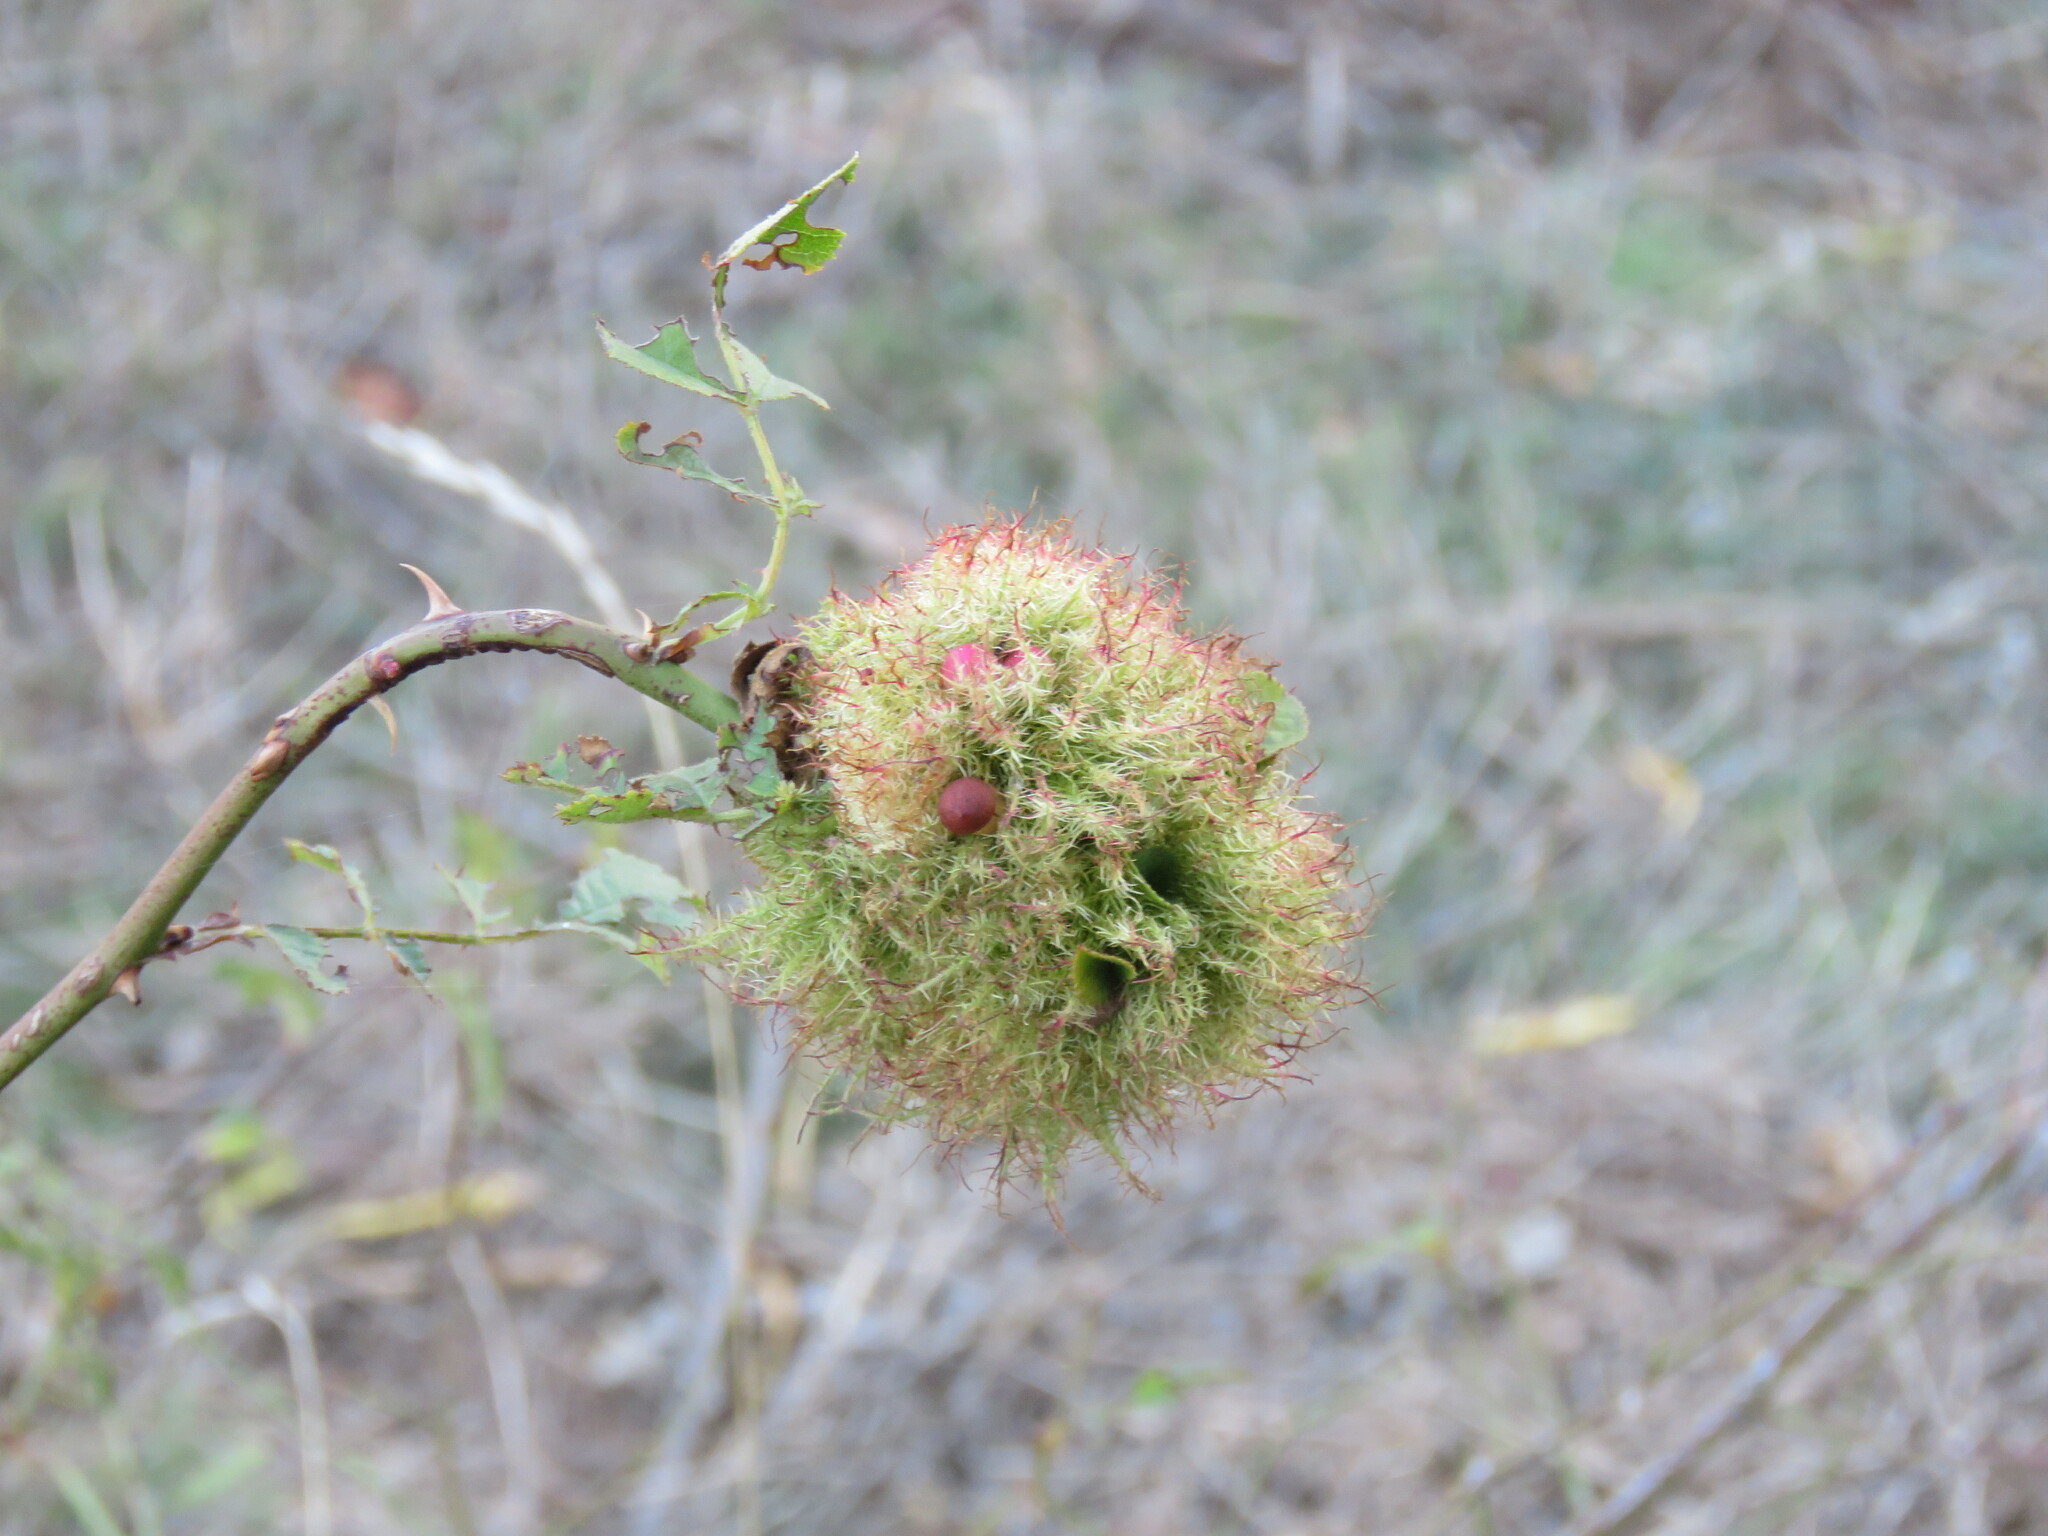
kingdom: Animalia
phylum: Arthropoda
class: Insecta
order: Hymenoptera
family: Cynipidae
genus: Diplolepis
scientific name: Diplolepis rosae
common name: Bedeguar gall
